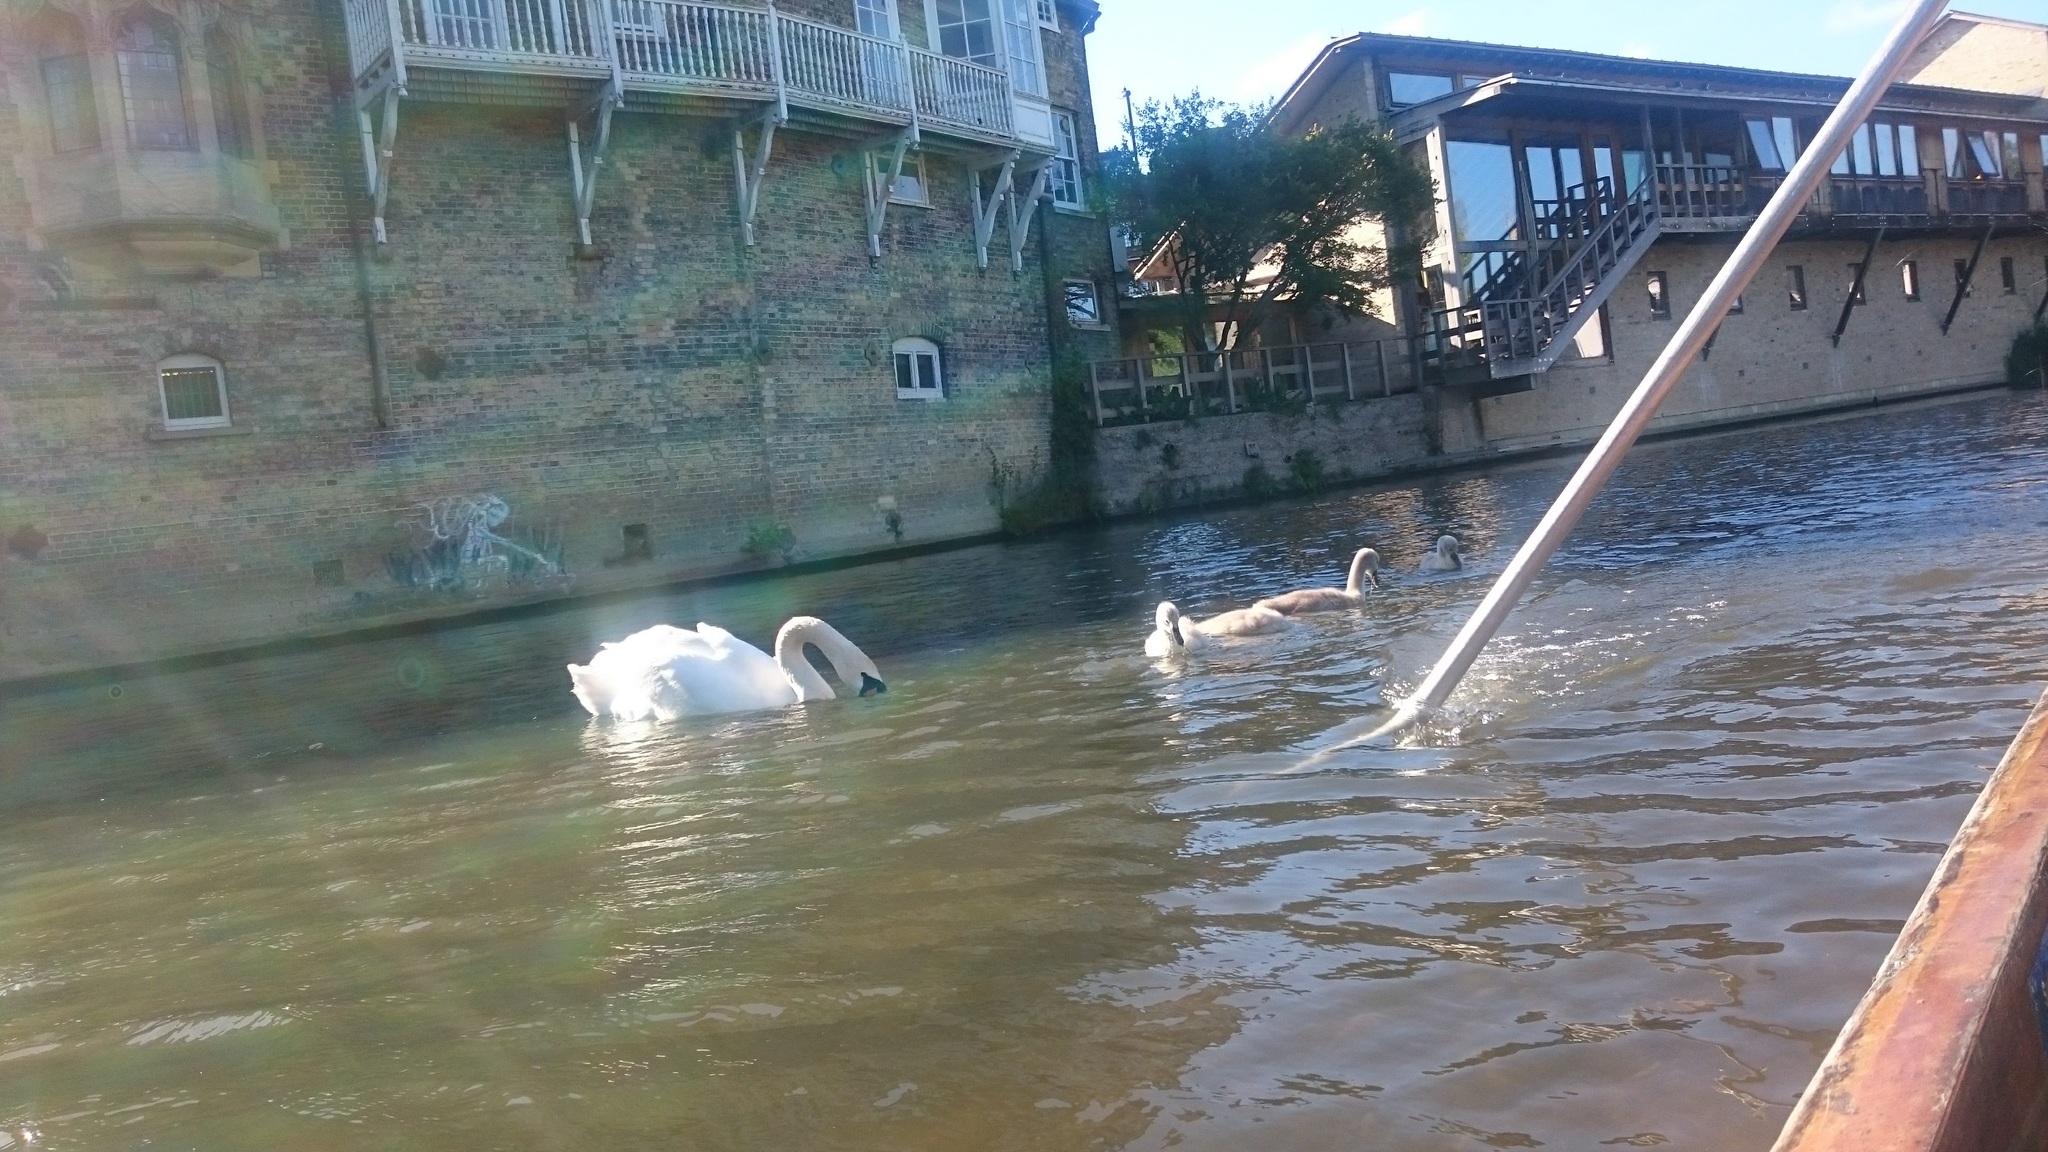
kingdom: Animalia
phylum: Chordata
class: Aves
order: Anseriformes
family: Anatidae
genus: Cygnus
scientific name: Cygnus olor
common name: Mute swan
